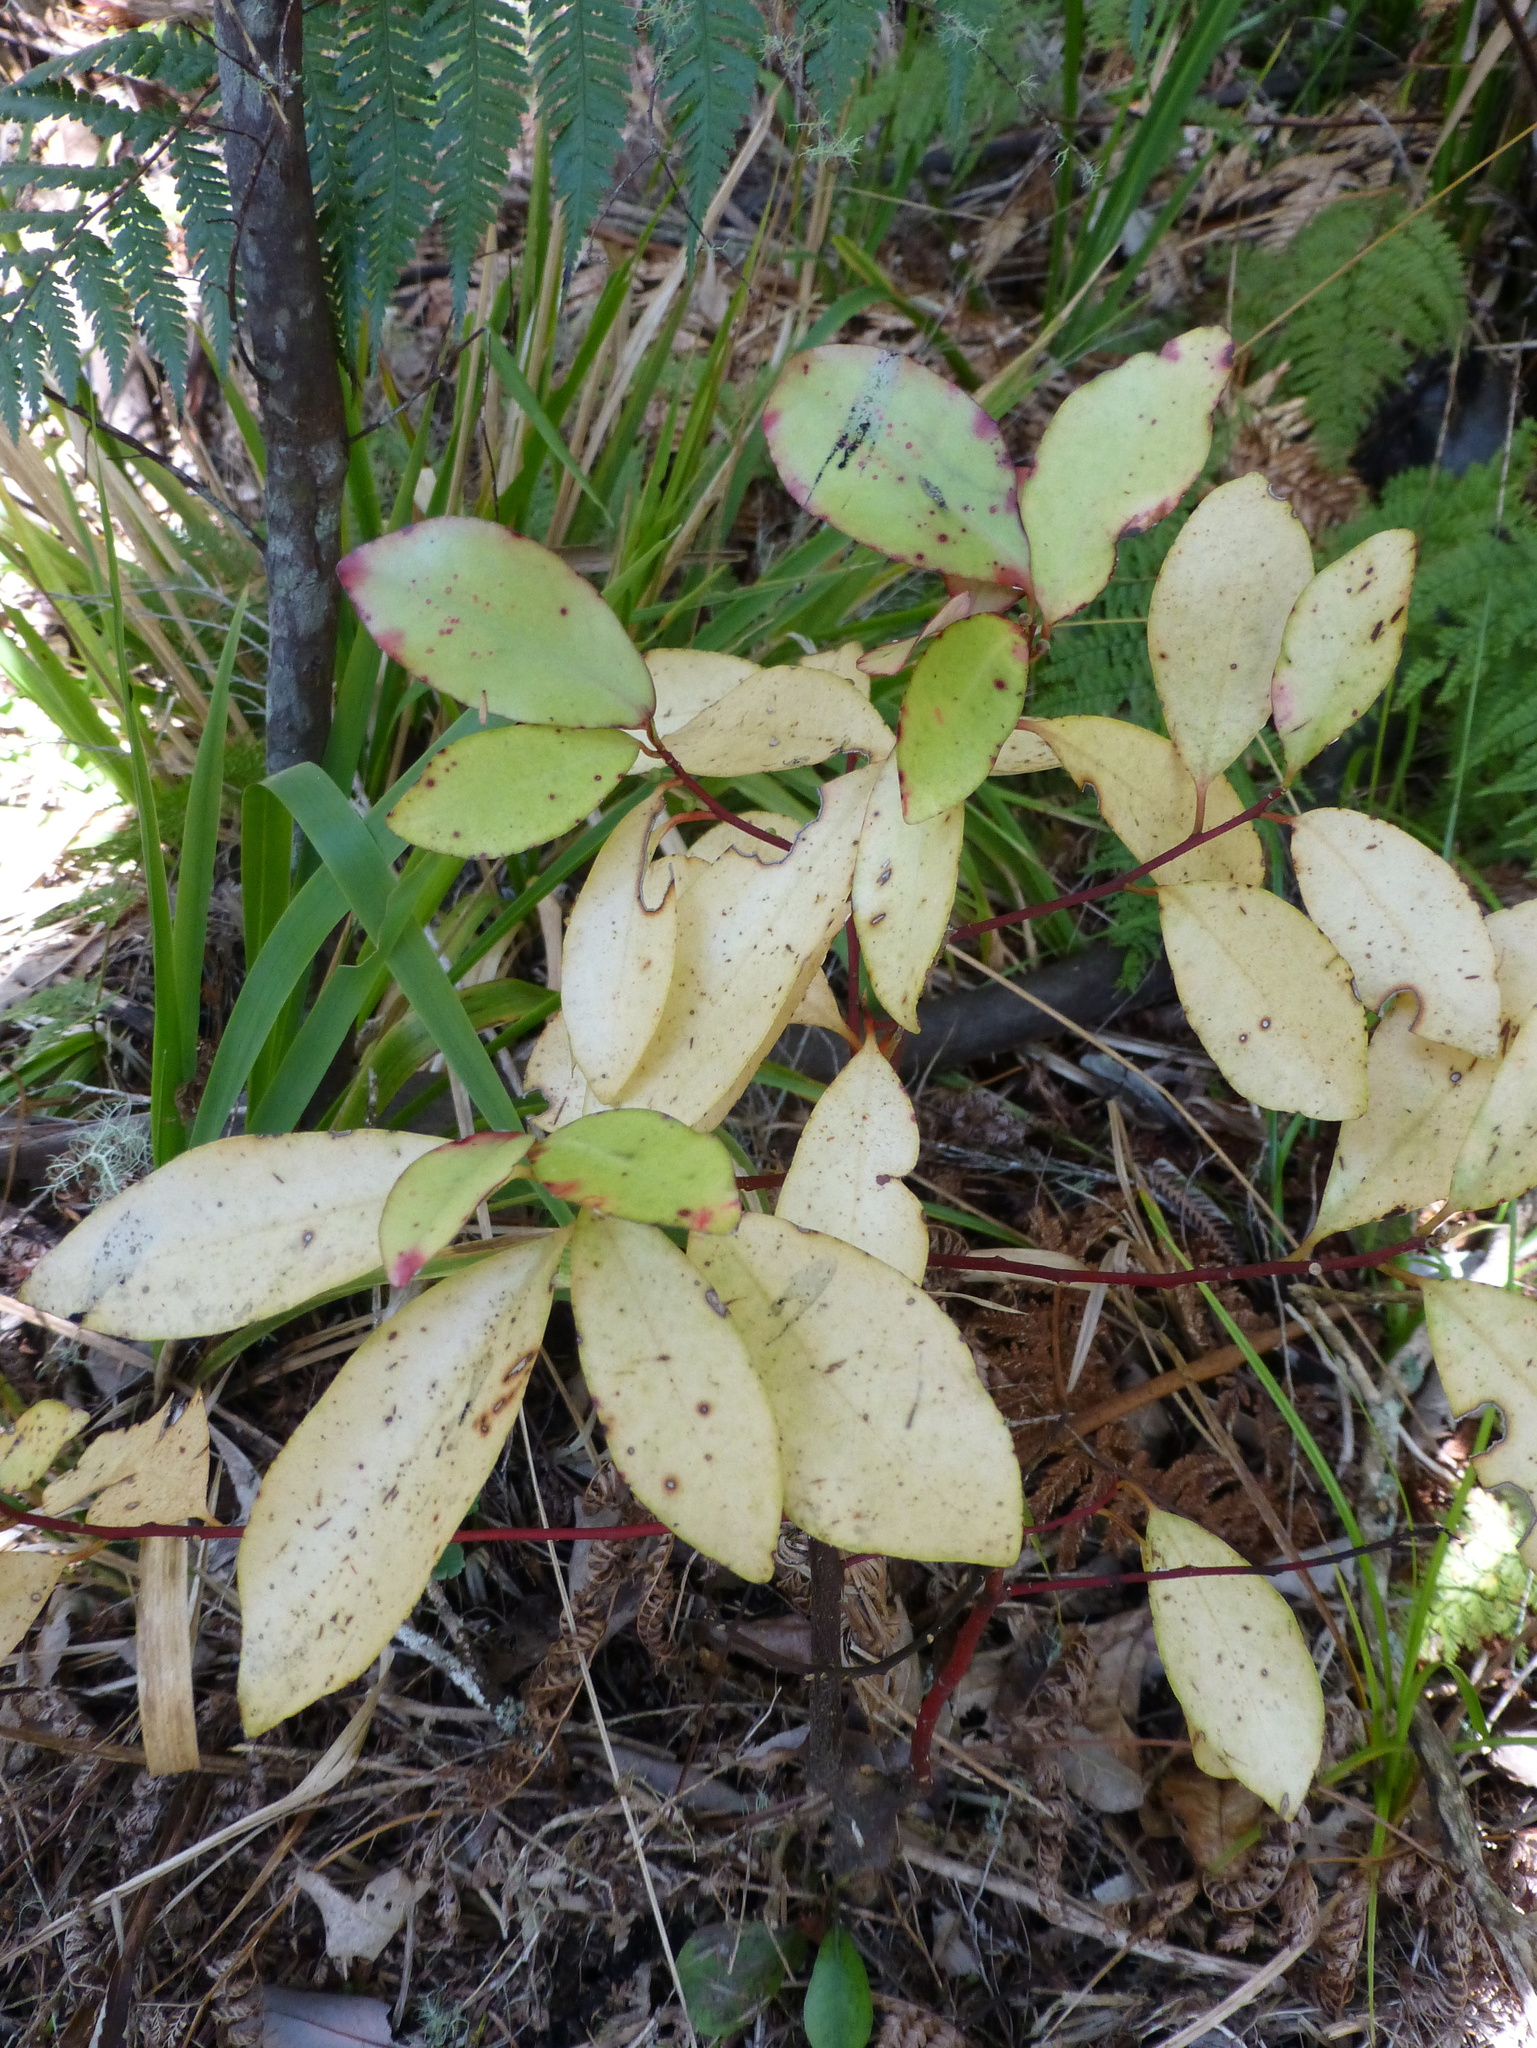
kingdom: Plantae
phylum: Tracheophyta
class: Magnoliopsida
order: Canellales
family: Winteraceae
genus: Pseudowintera
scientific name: Pseudowintera colorata
